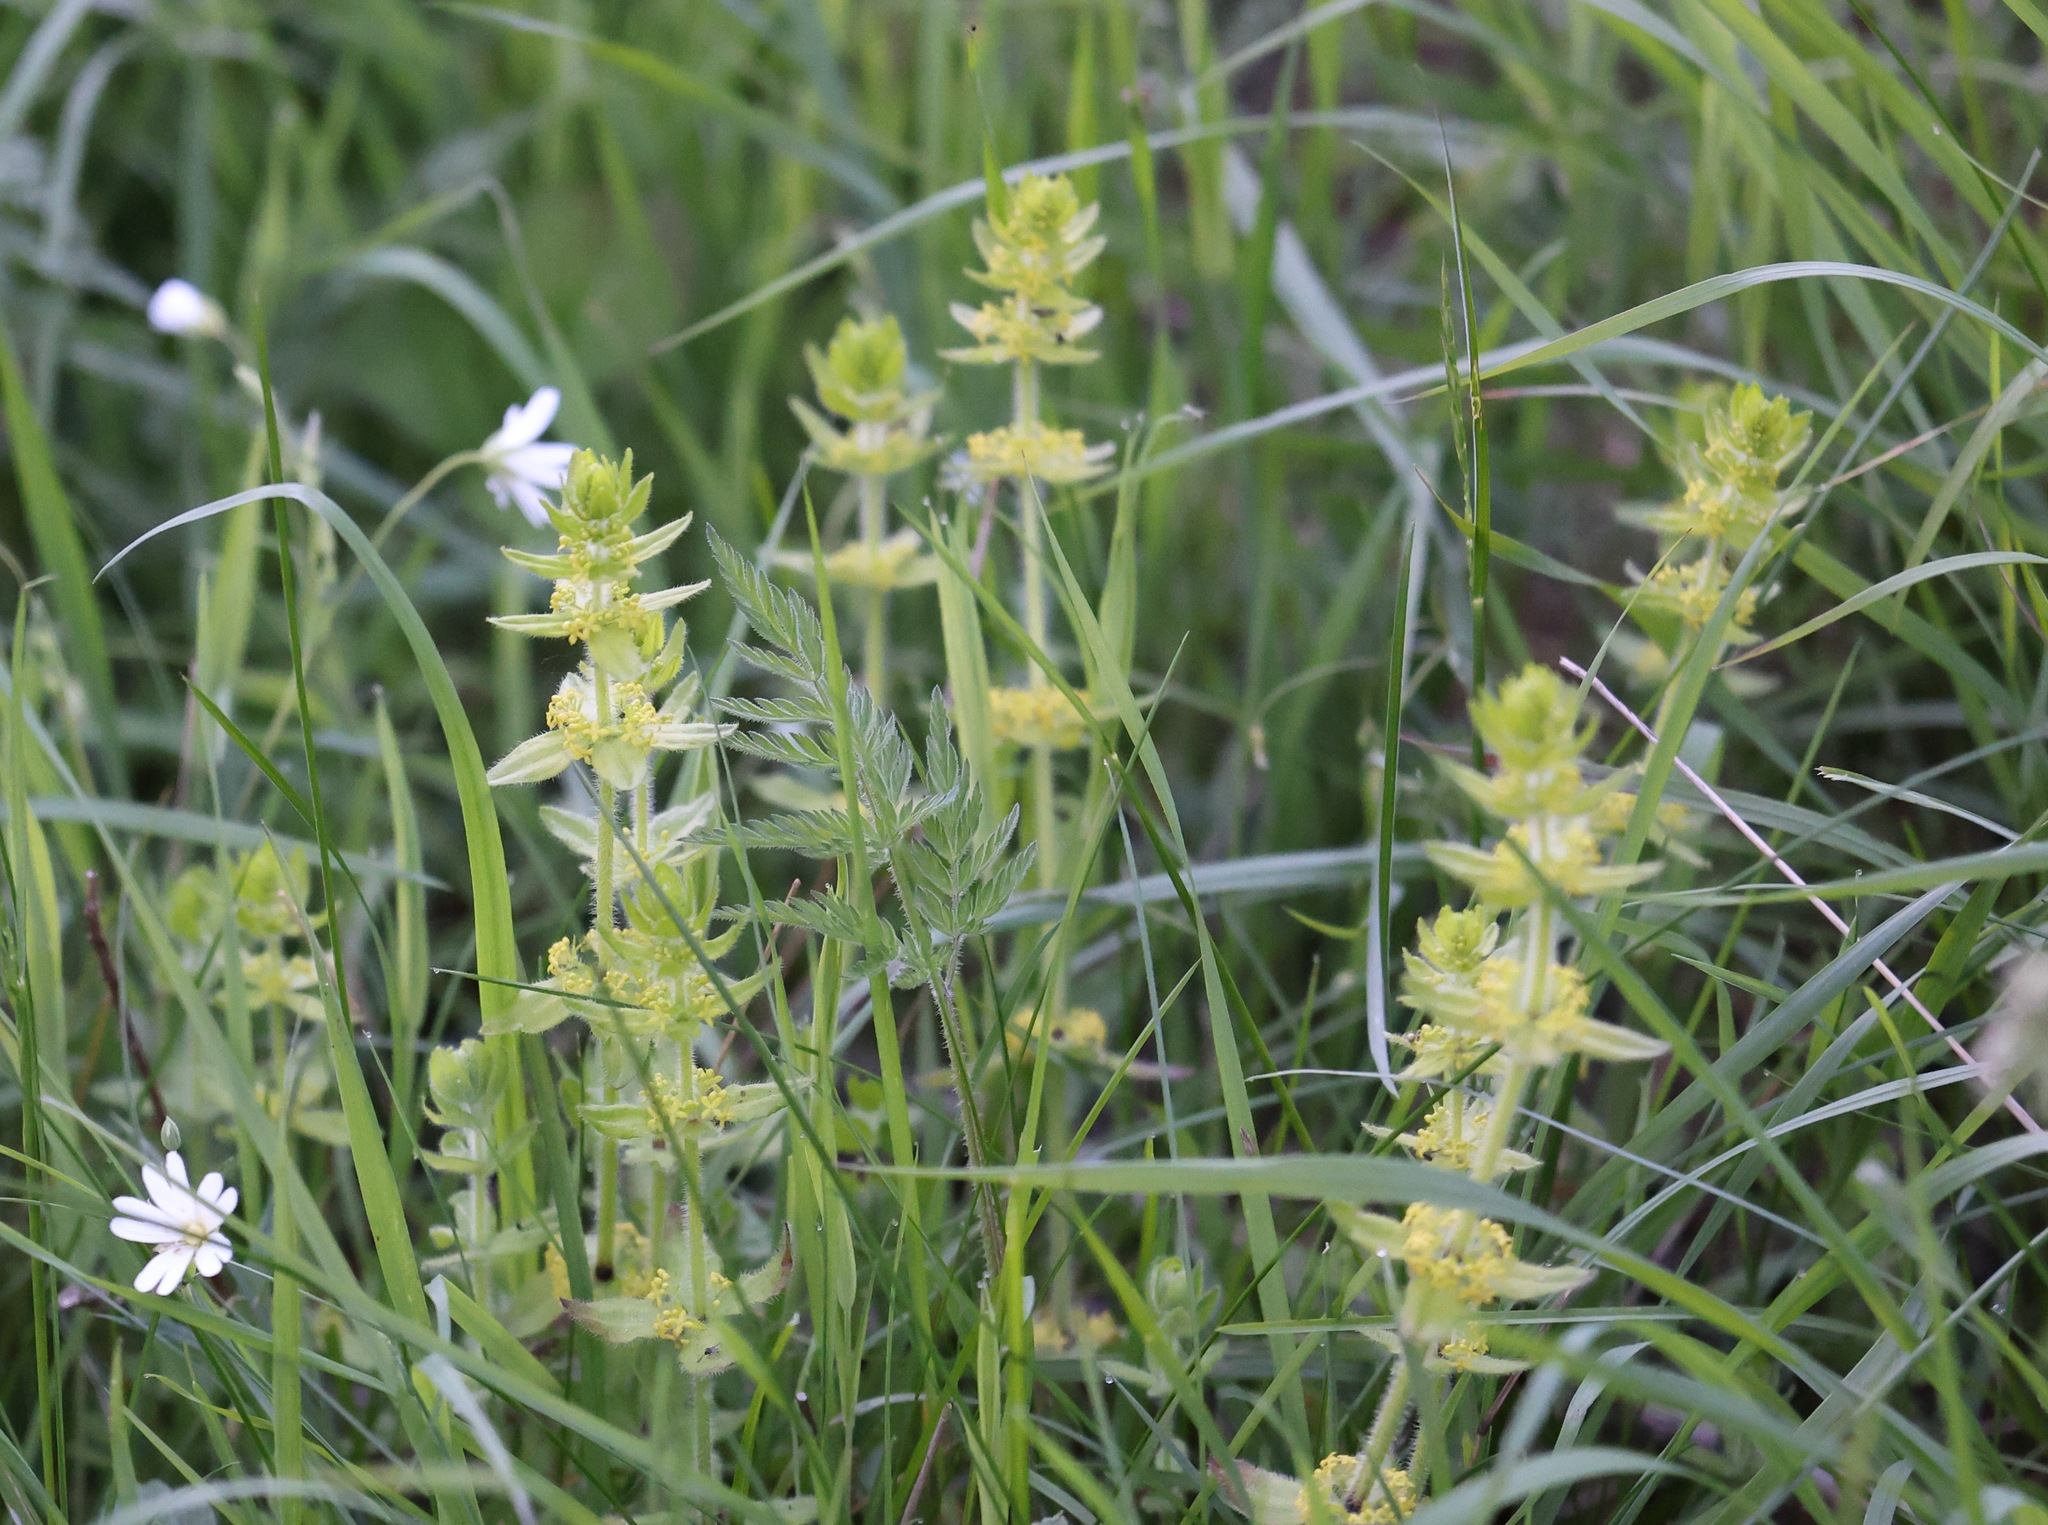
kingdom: Plantae
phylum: Tracheophyta
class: Magnoliopsida
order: Gentianales
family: Rubiaceae
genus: Cruciata
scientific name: Cruciata laevipes
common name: Crosswort
